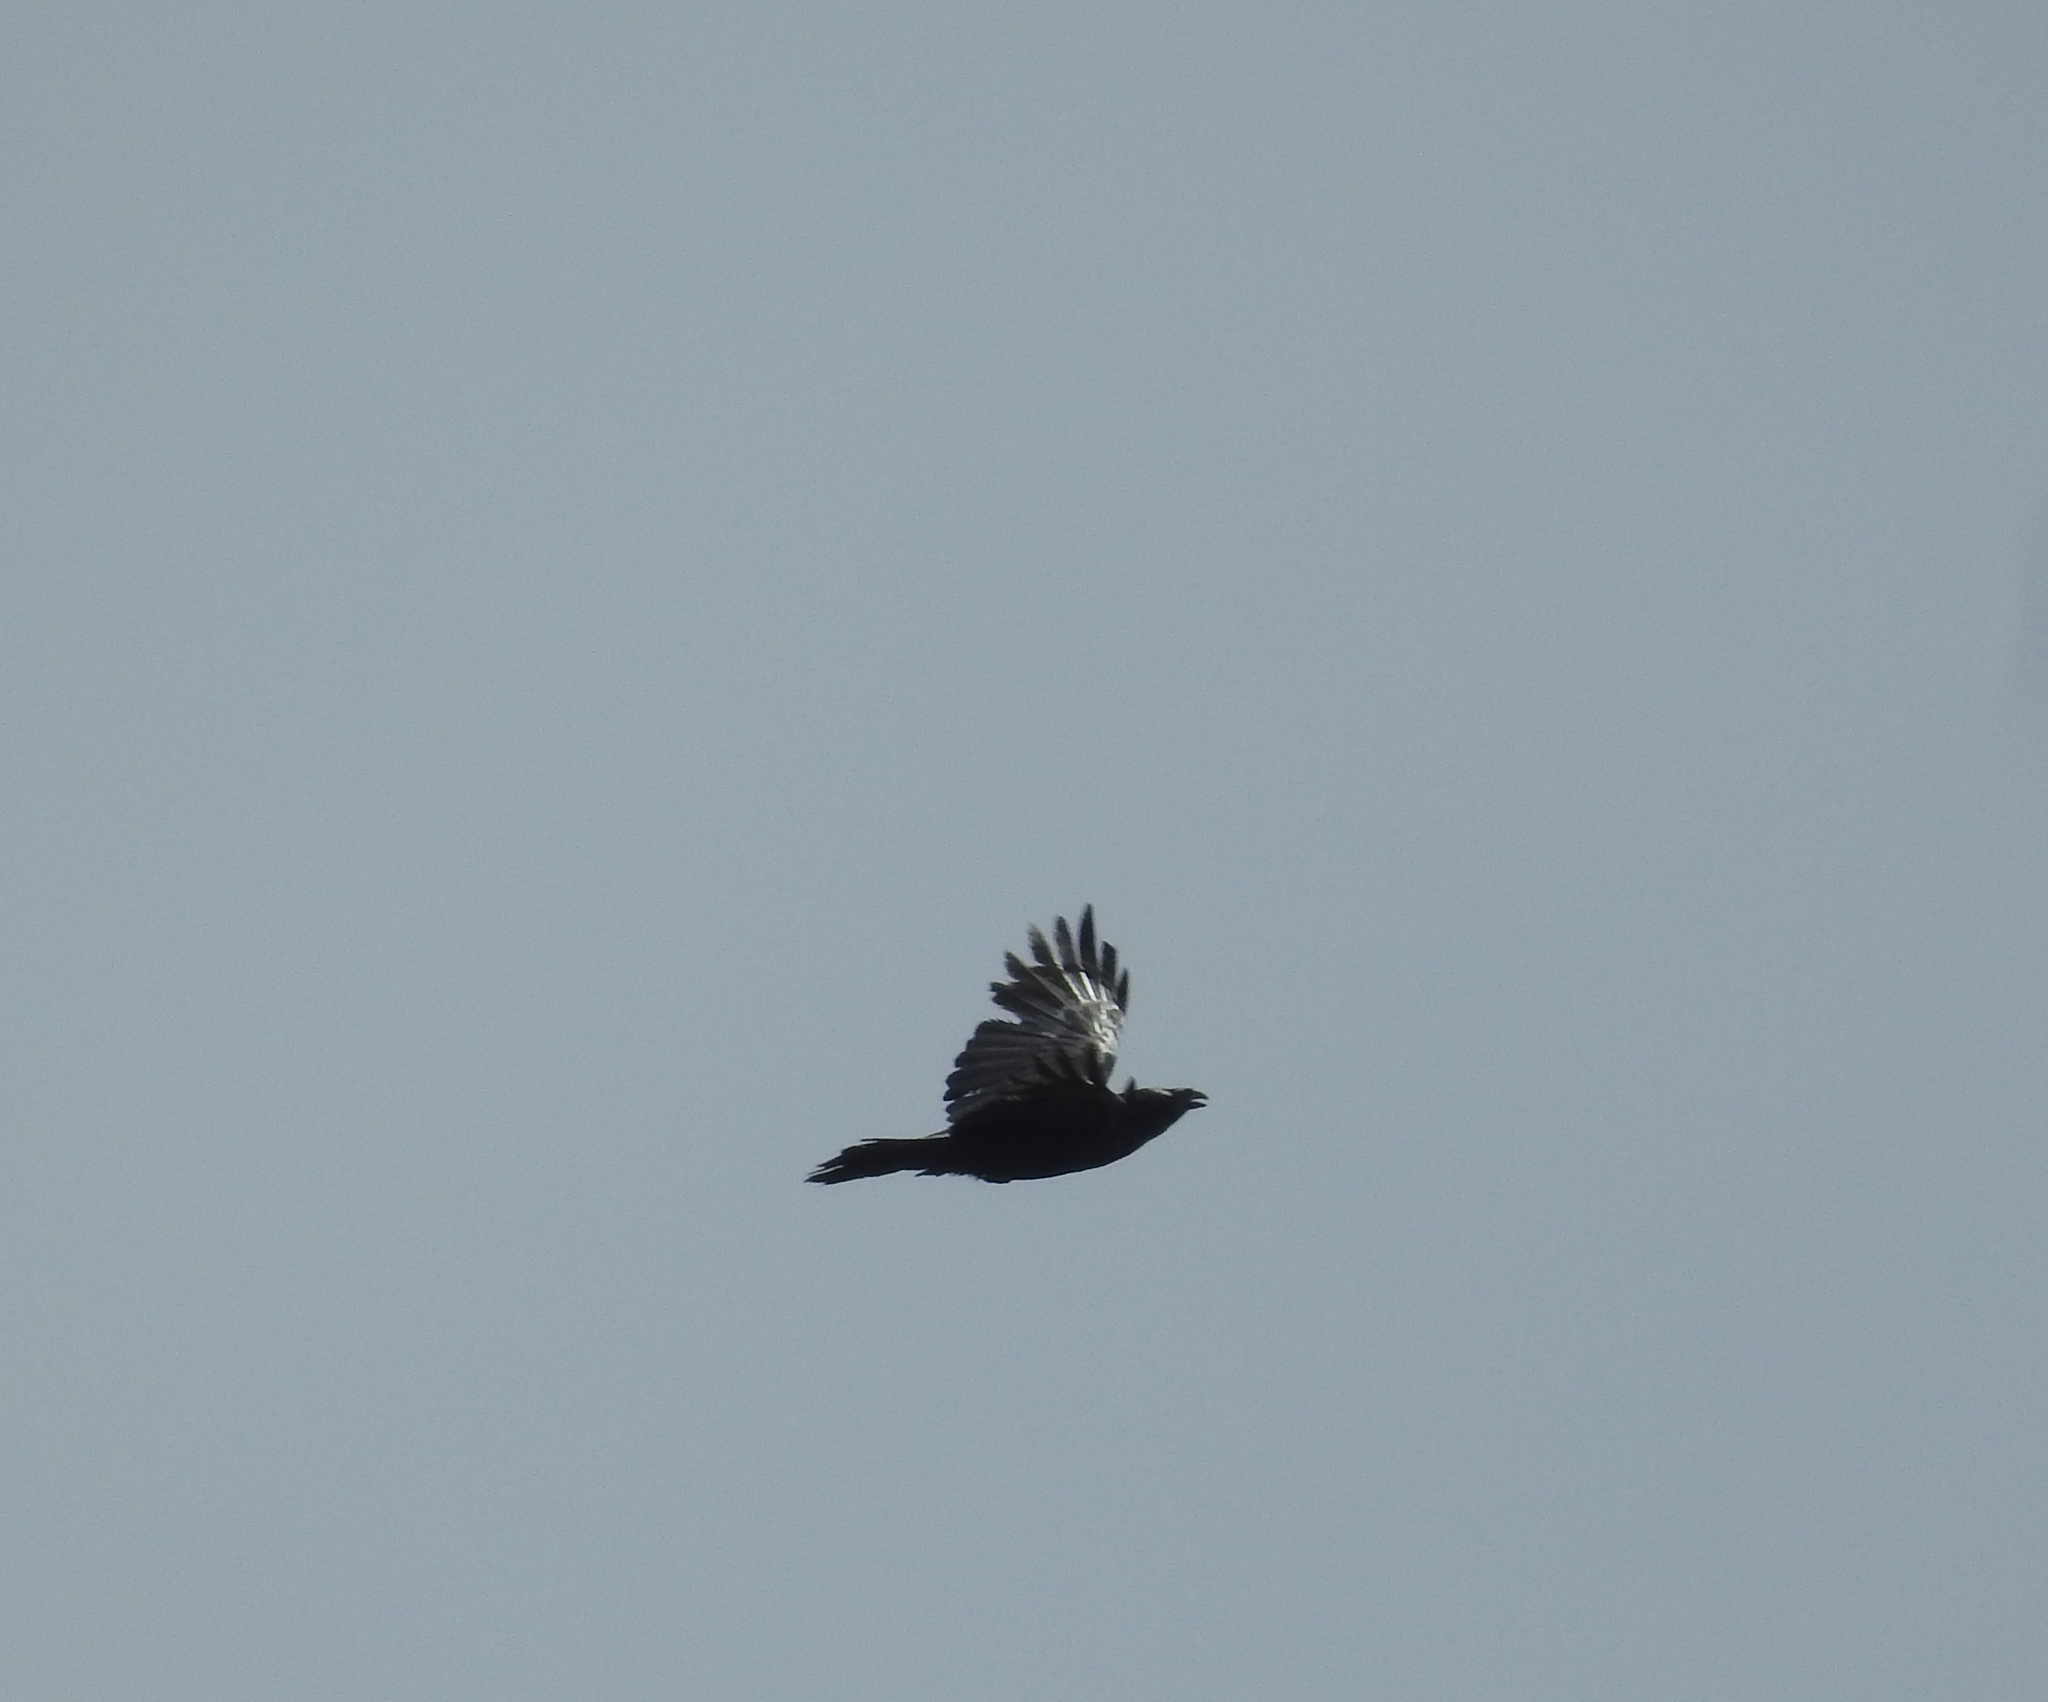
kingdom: Animalia
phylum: Chordata
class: Aves
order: Passeriformes
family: Corvidae
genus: Corvus
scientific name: Corvus corax
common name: Common raven
